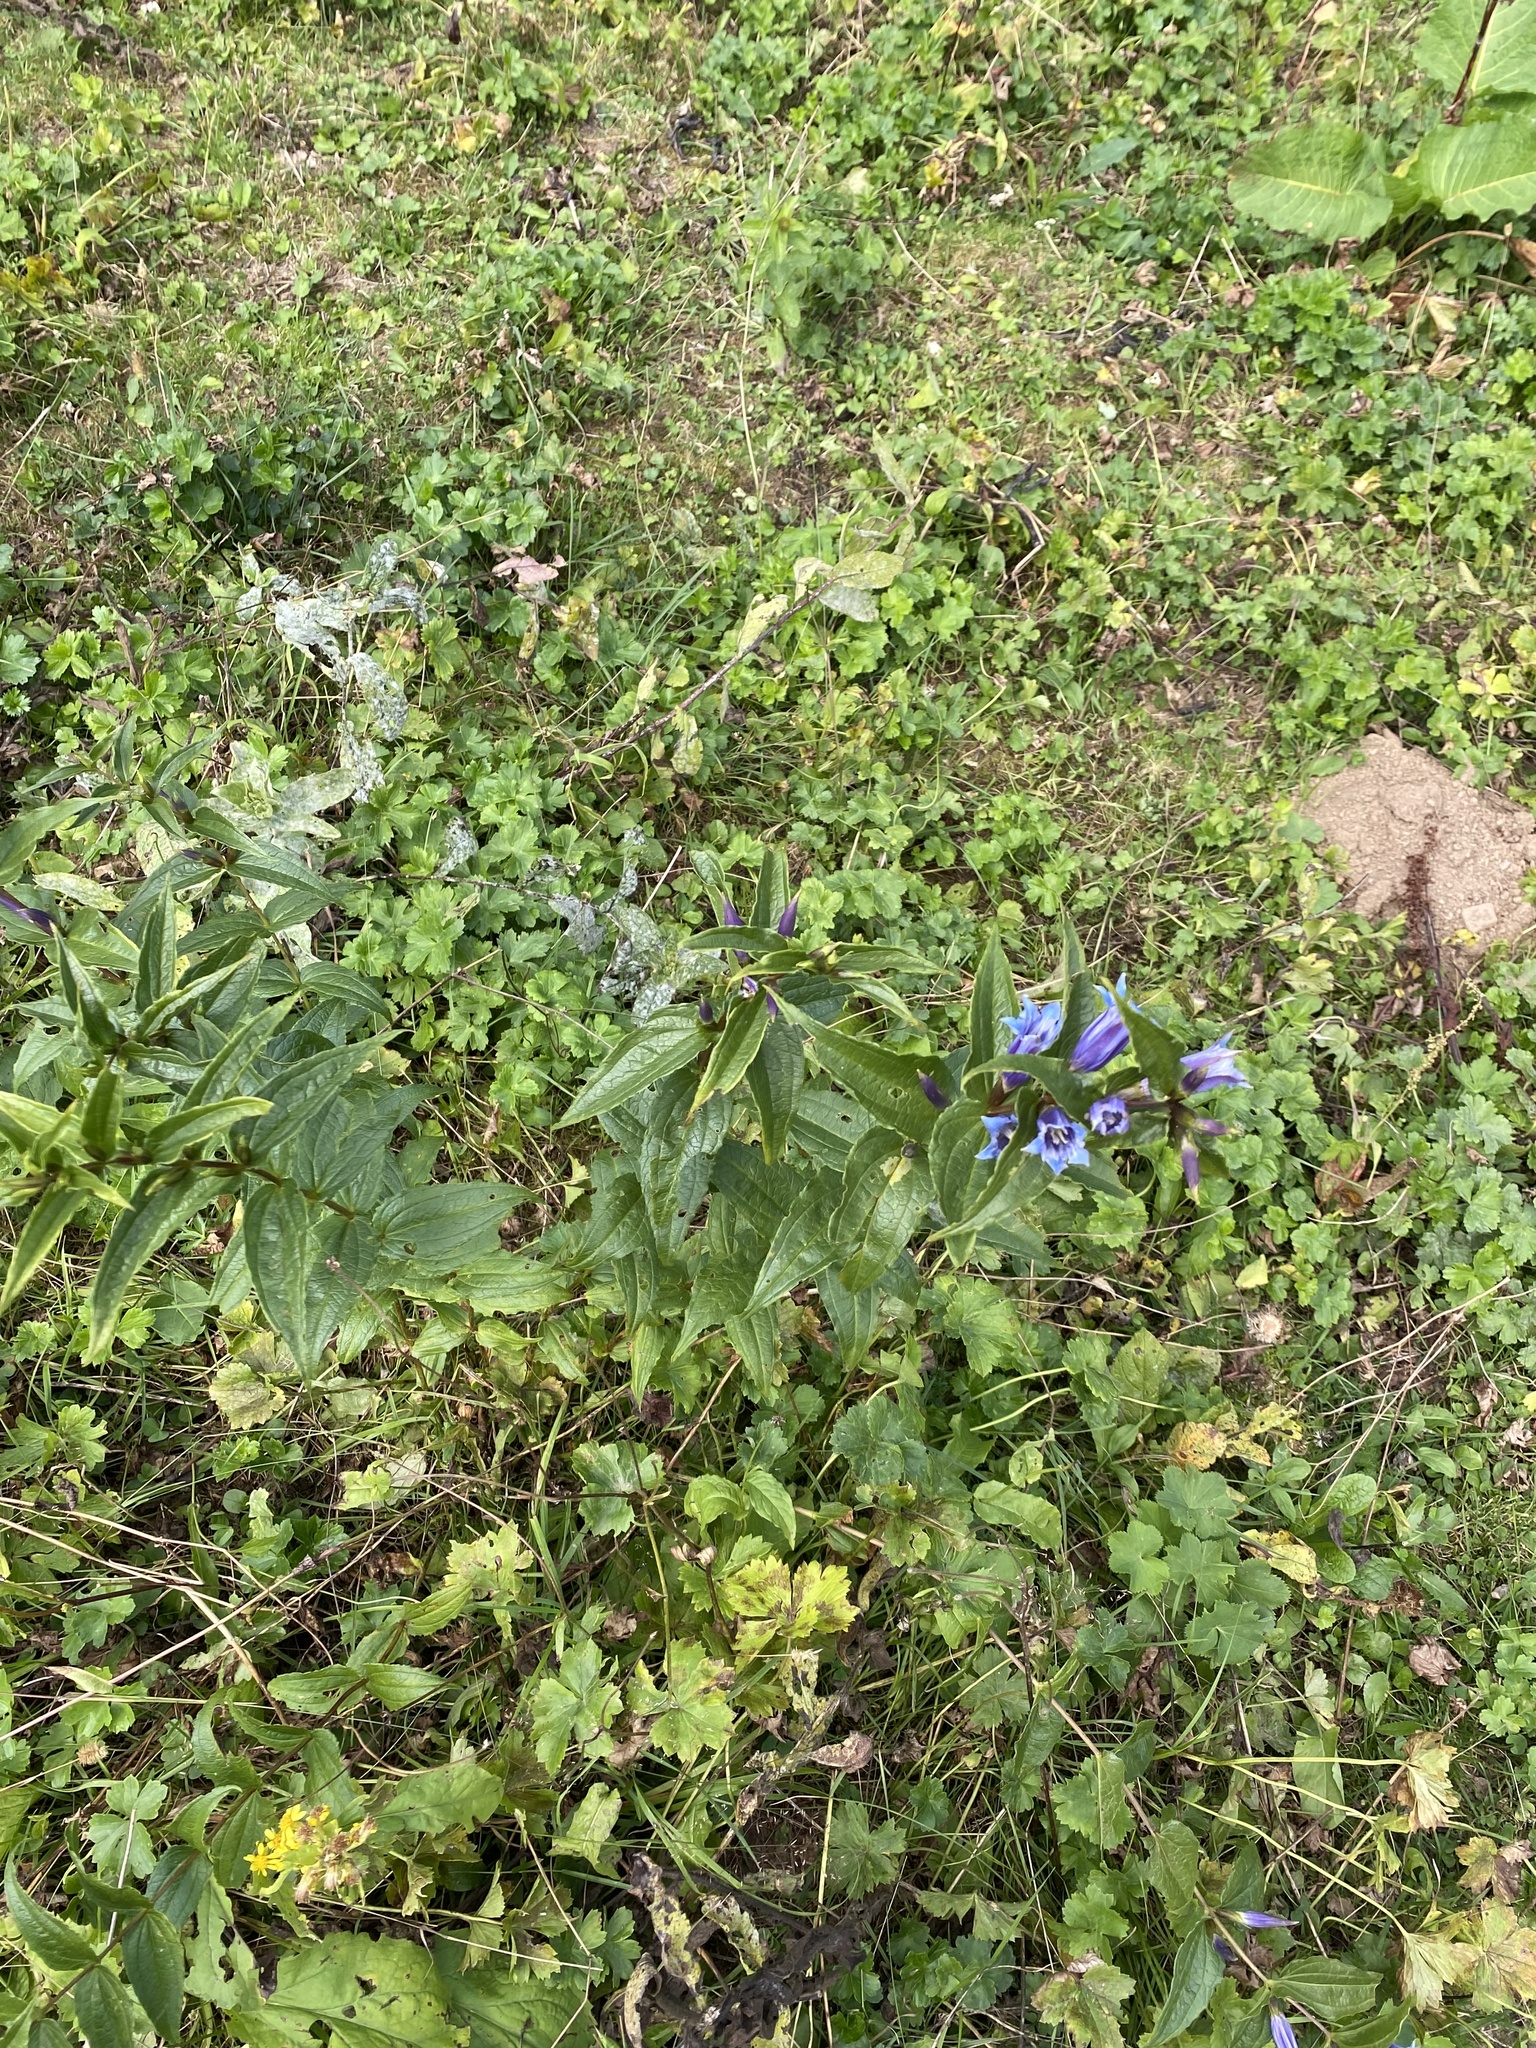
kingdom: Plantae
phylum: Tracheophyta
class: Magnoliopsida
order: Gentianales
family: Gentianaceae
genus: Gentiana
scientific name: Gentiana asclepiadea
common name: Willow gentian
